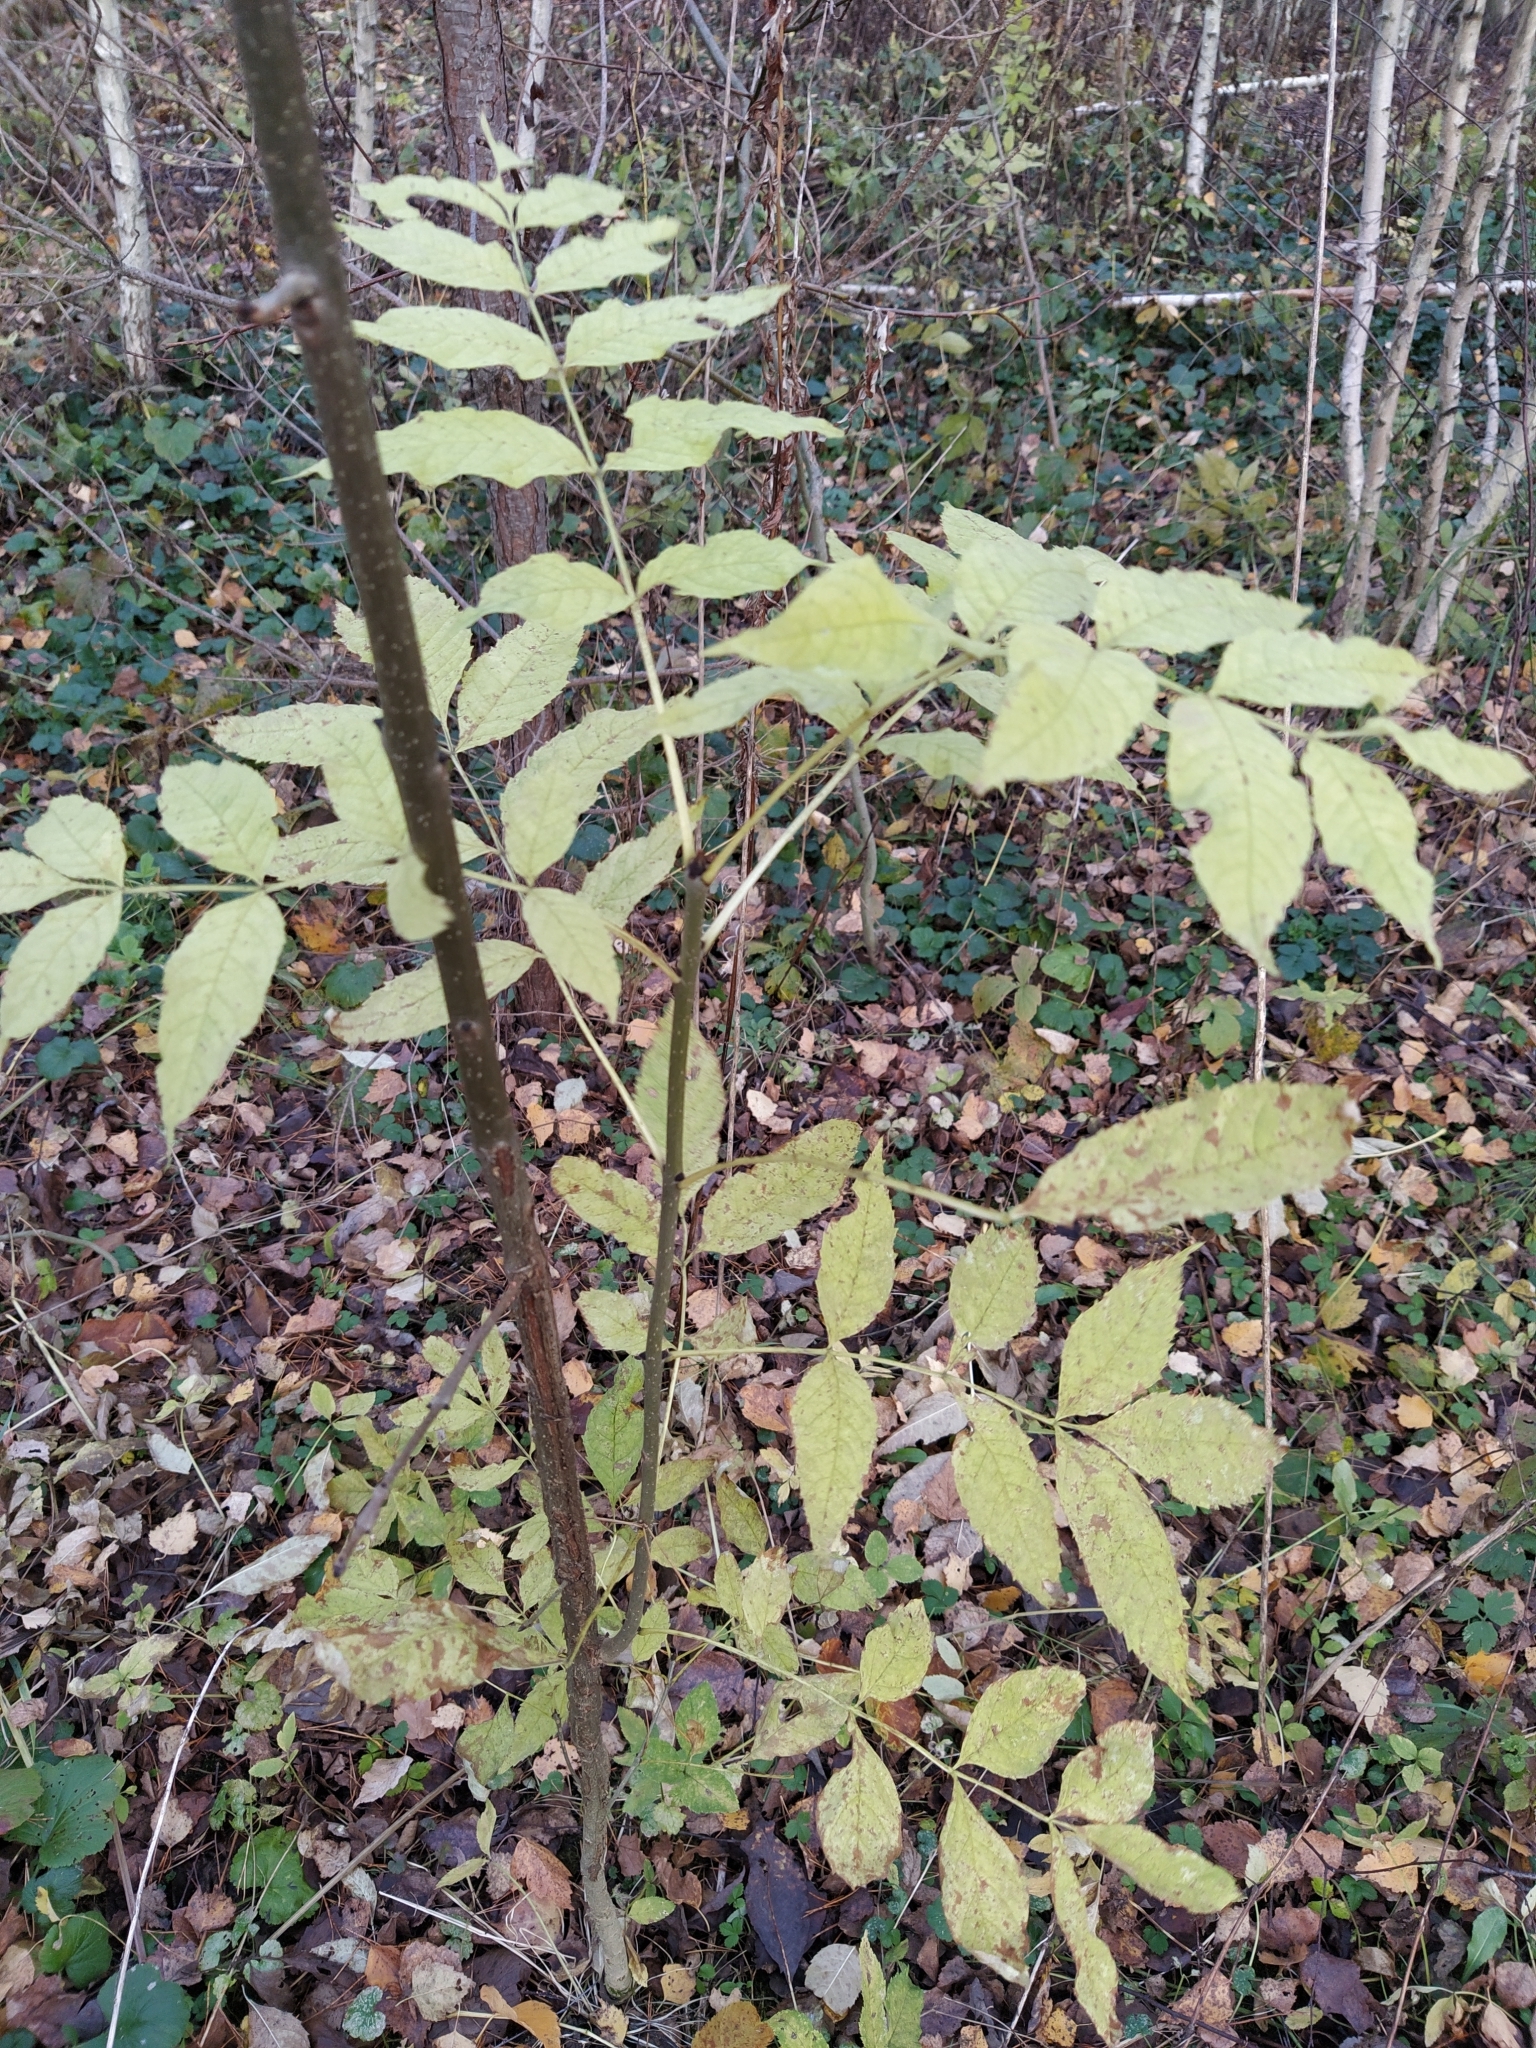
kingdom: Plantae
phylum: Tracheophyta
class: Magnoliopsida
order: Lamiales
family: Oleaceae
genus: Fraxinus
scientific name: Fraxinus excelsior
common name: European ash
